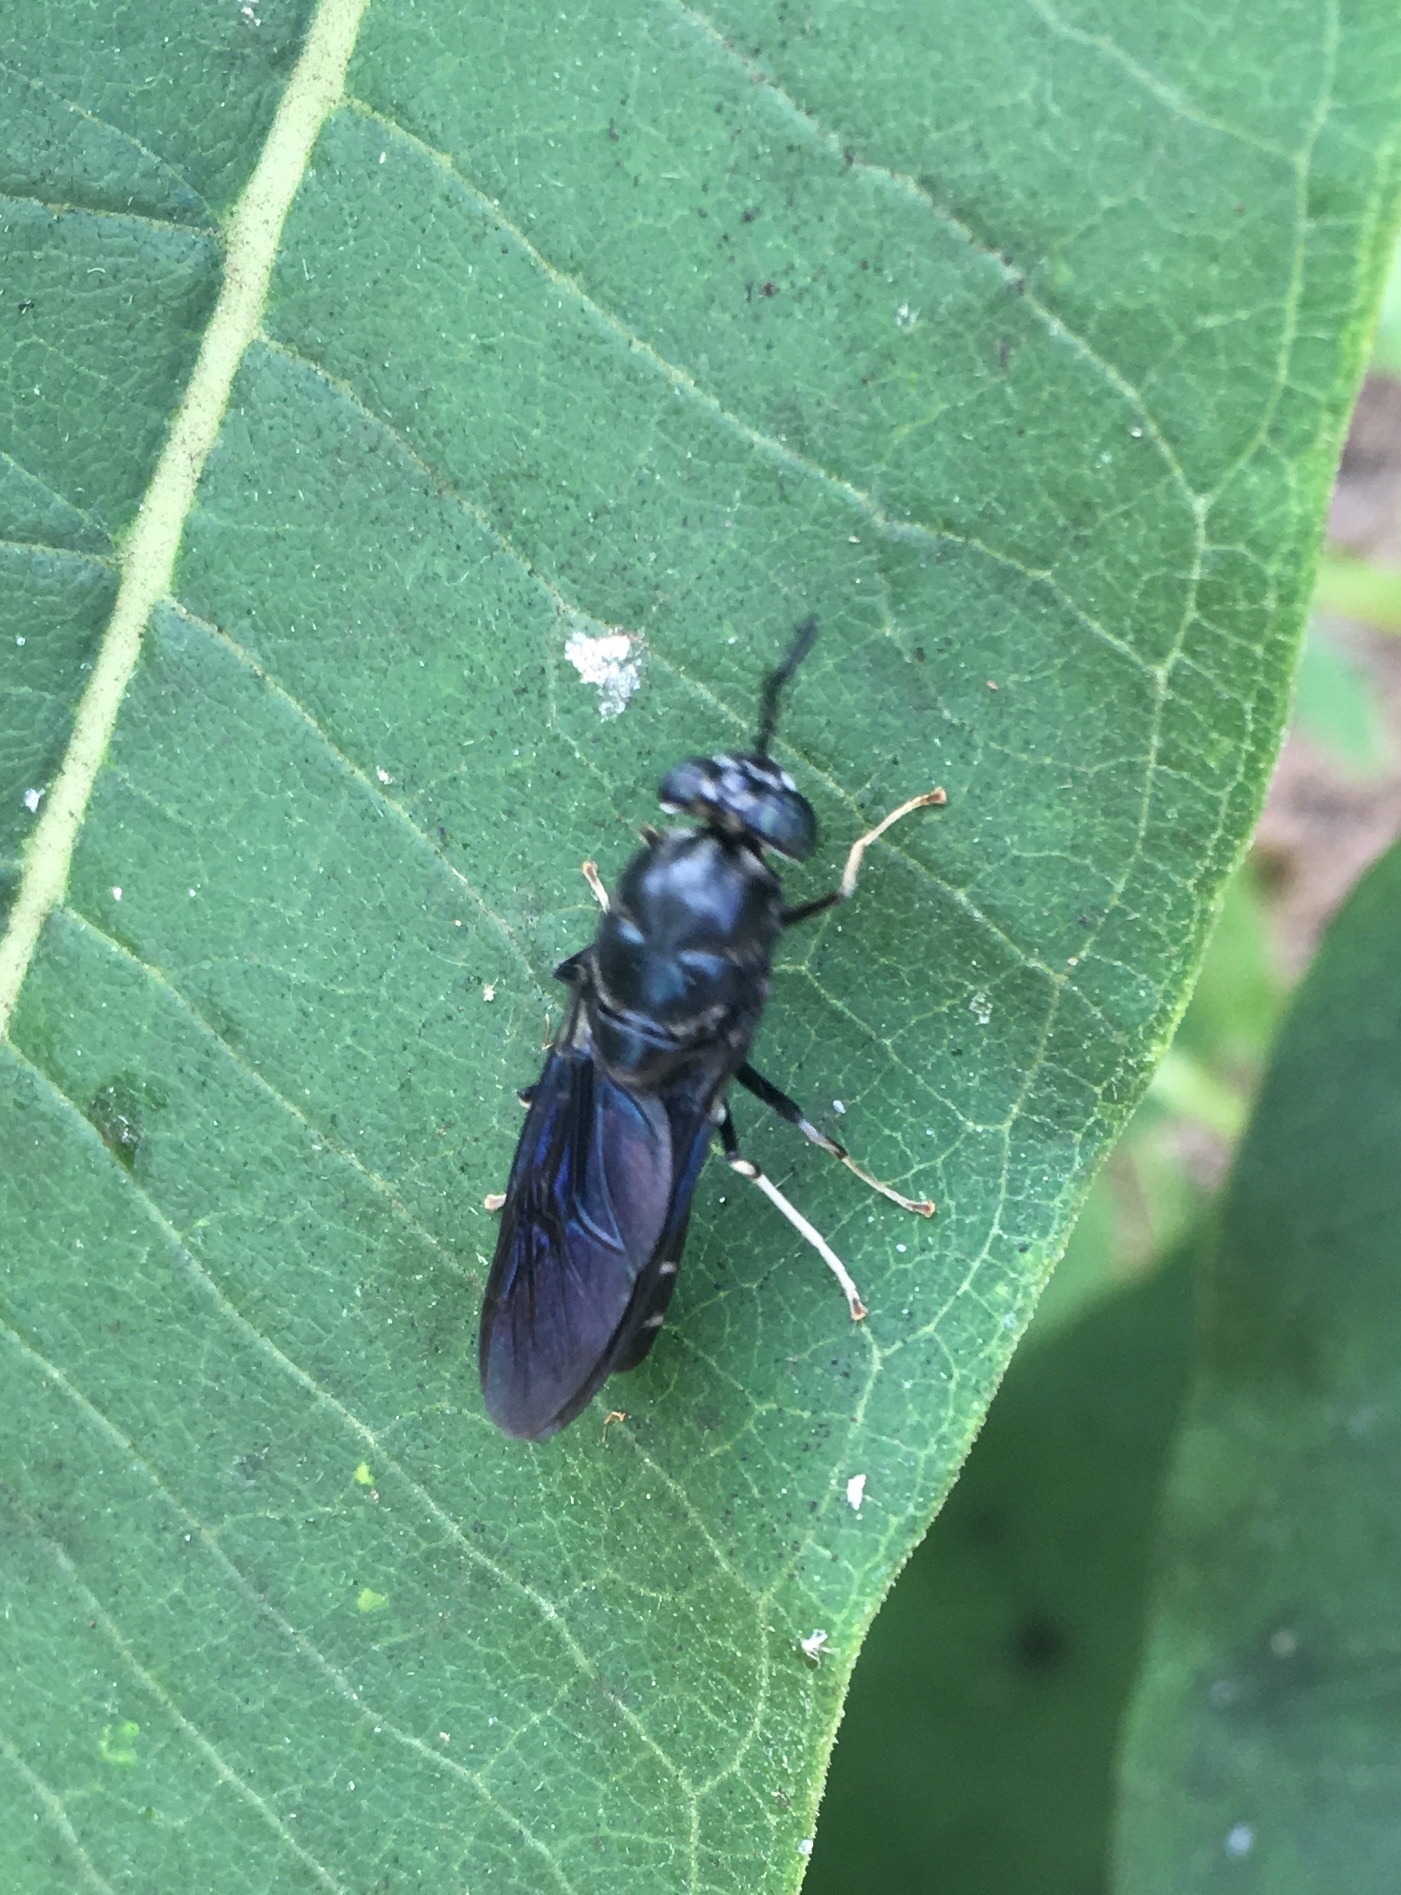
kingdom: Animalia
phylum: Arthropoda
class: Insecta
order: Diptera
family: Stratiomyidae
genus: Hermetia
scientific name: Hermetia illucens
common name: Black soldier fly
